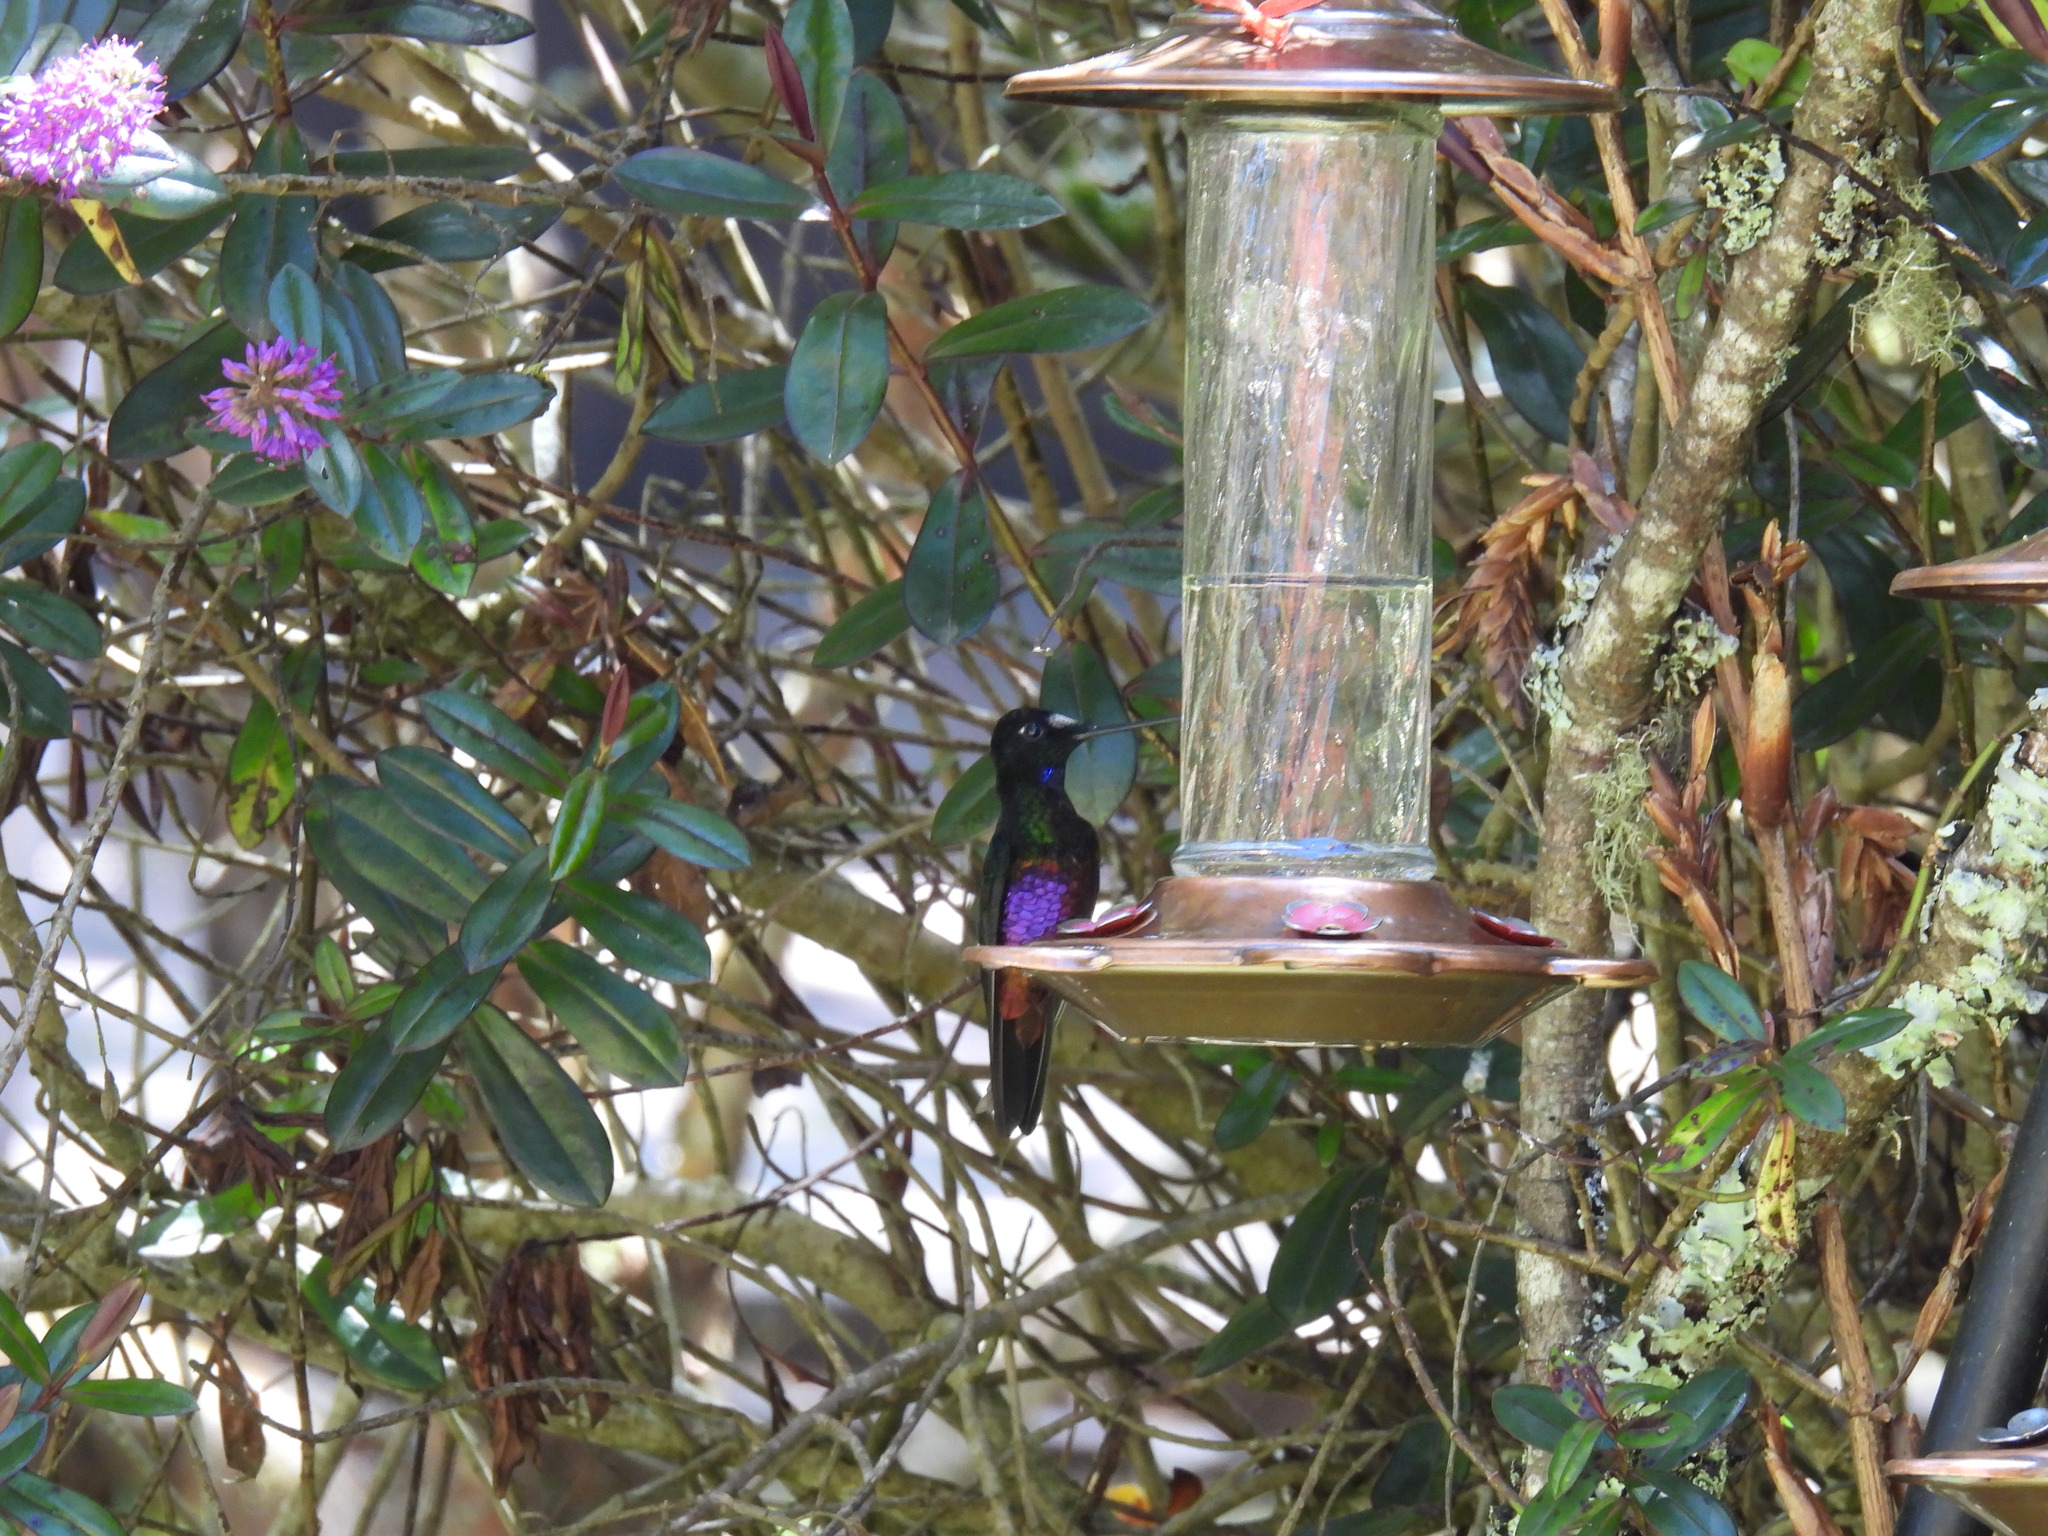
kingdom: Animalia
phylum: Chordata
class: Aves
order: Apodiformes
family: Trochilidae
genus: Coeligena
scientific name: Coeligena helianthea
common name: Blue-throated starfrontlet
